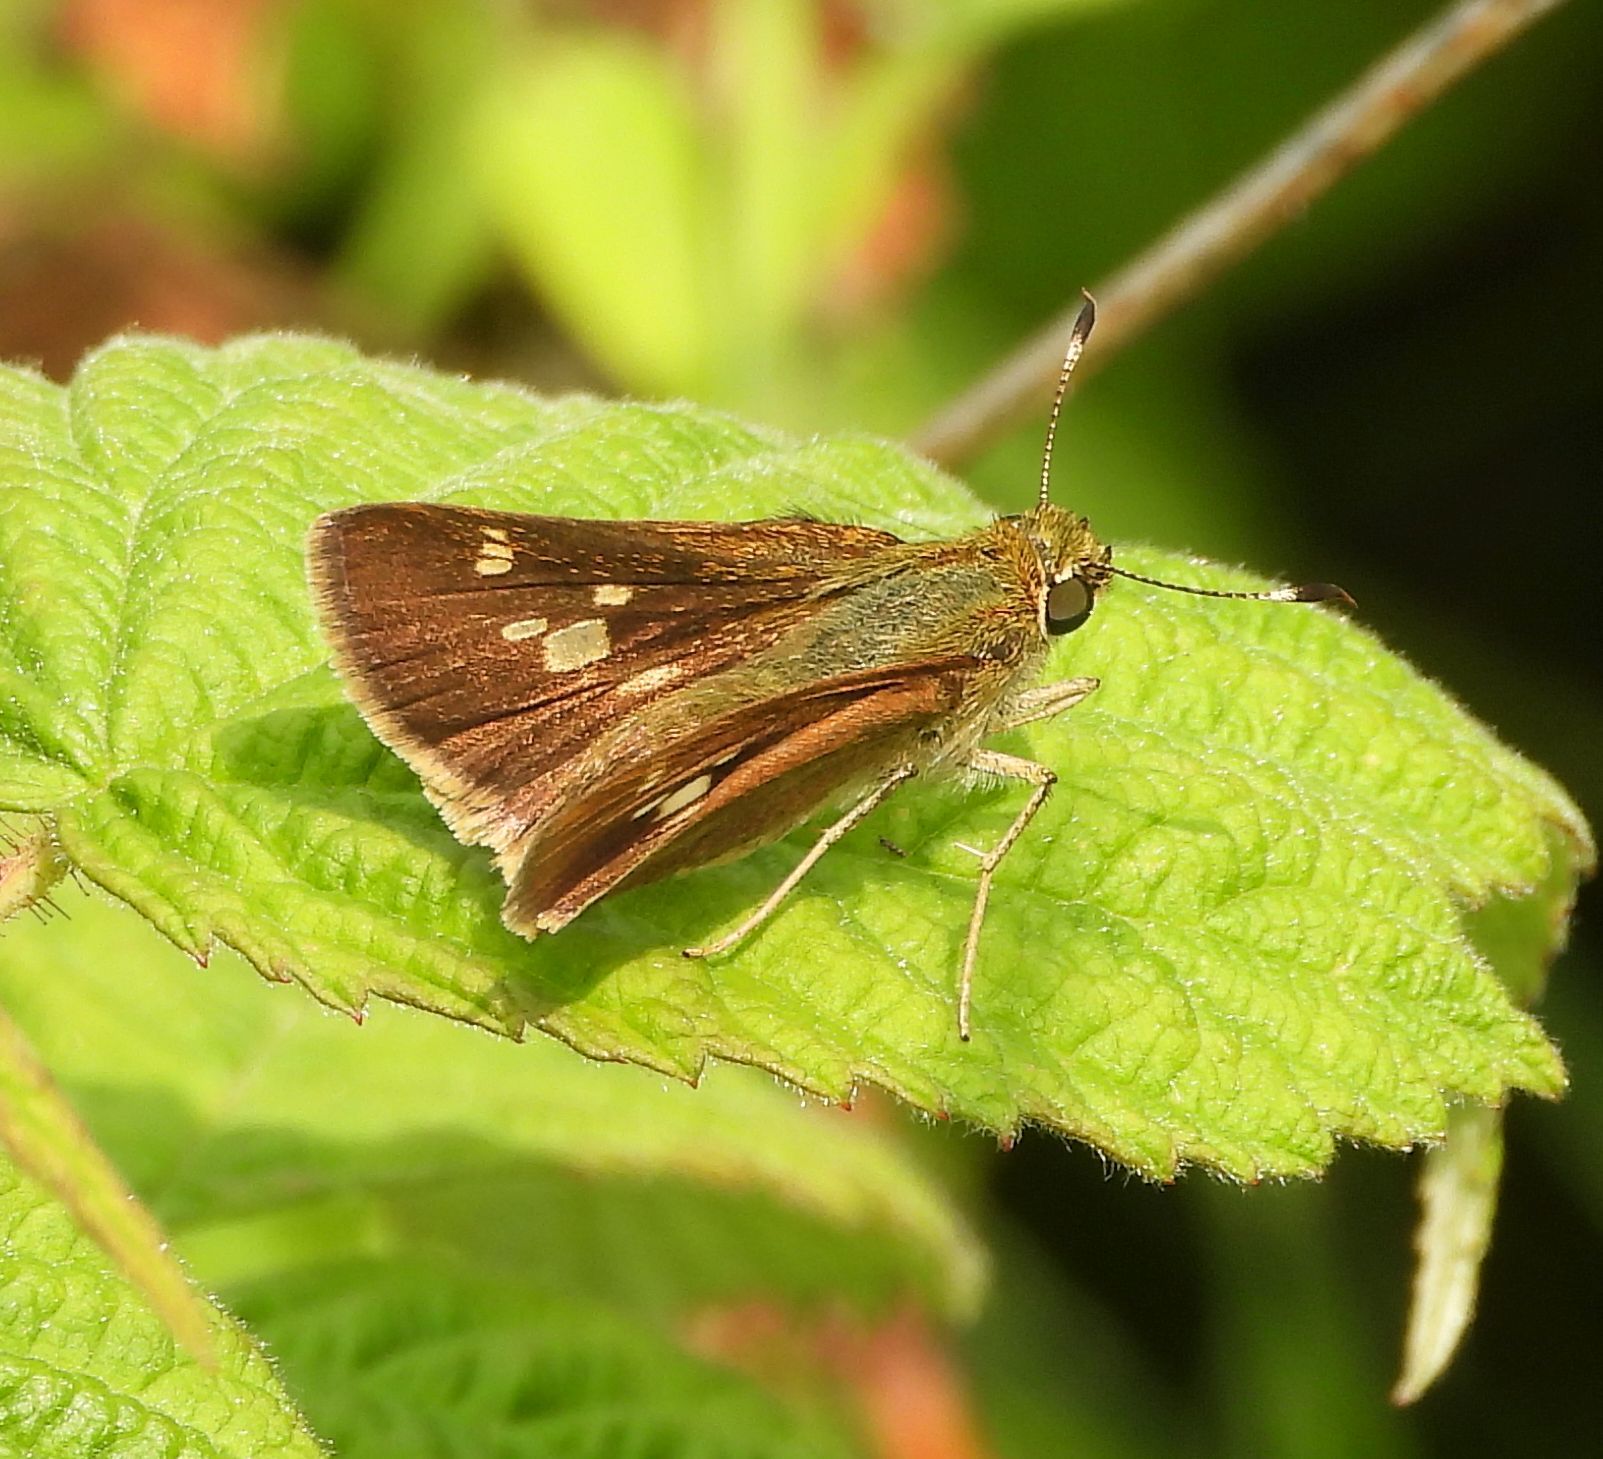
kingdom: Animalia
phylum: Arthropoda
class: Insecta
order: Lepidoptera
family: Hesperiidae
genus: Vernia
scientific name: Vernia verna
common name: Little glassywing
